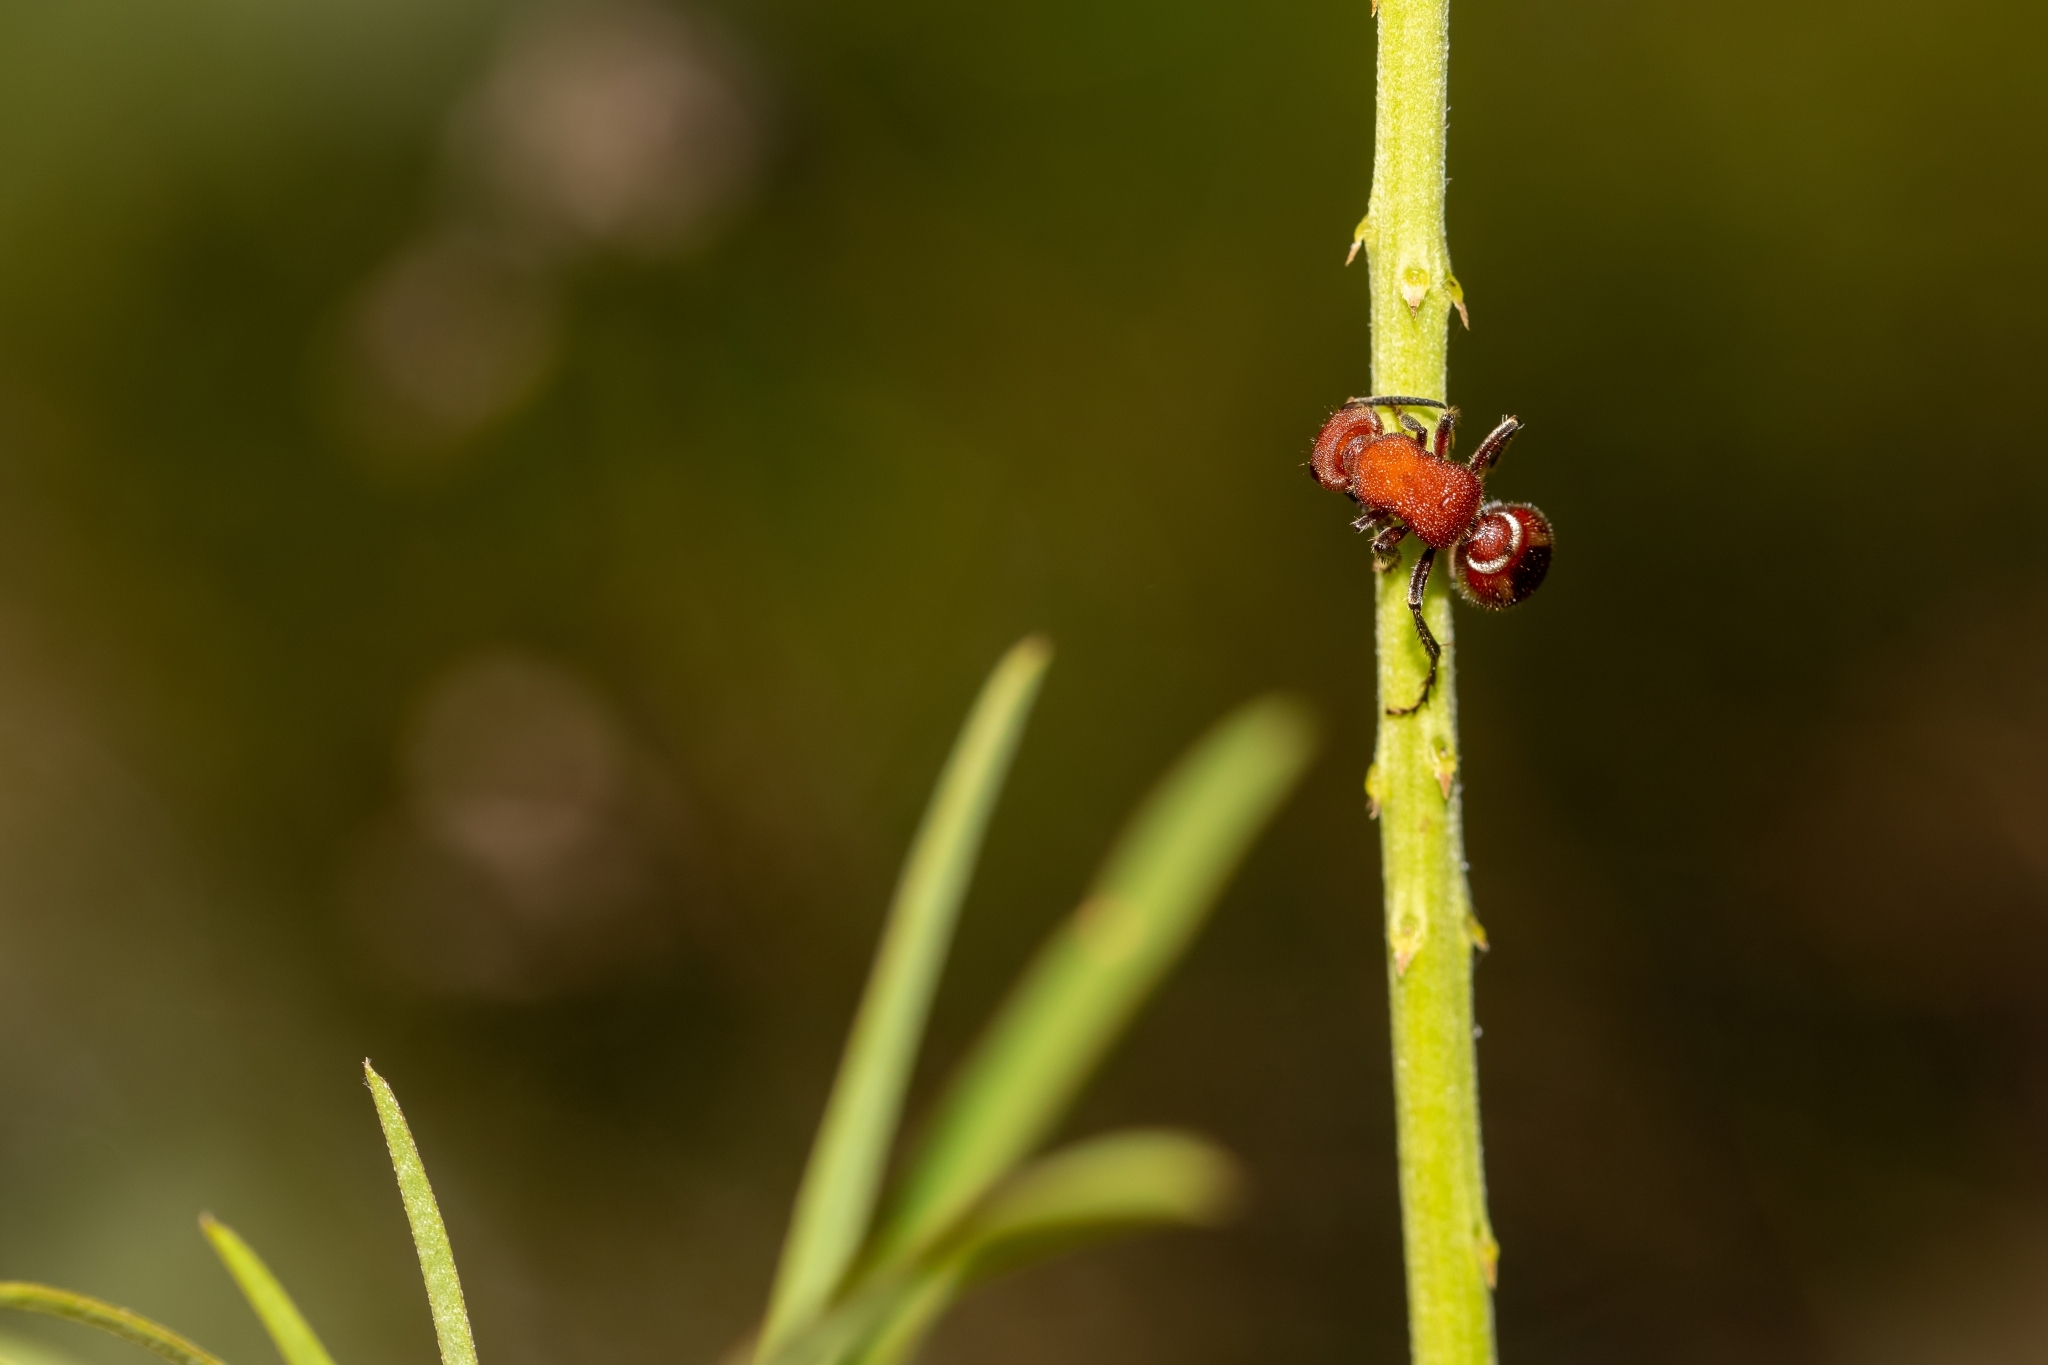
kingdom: Animalia
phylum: Arthropoda
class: Insecta
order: Hymenoptera
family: Mutillidae
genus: Timulla
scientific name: Timulla
